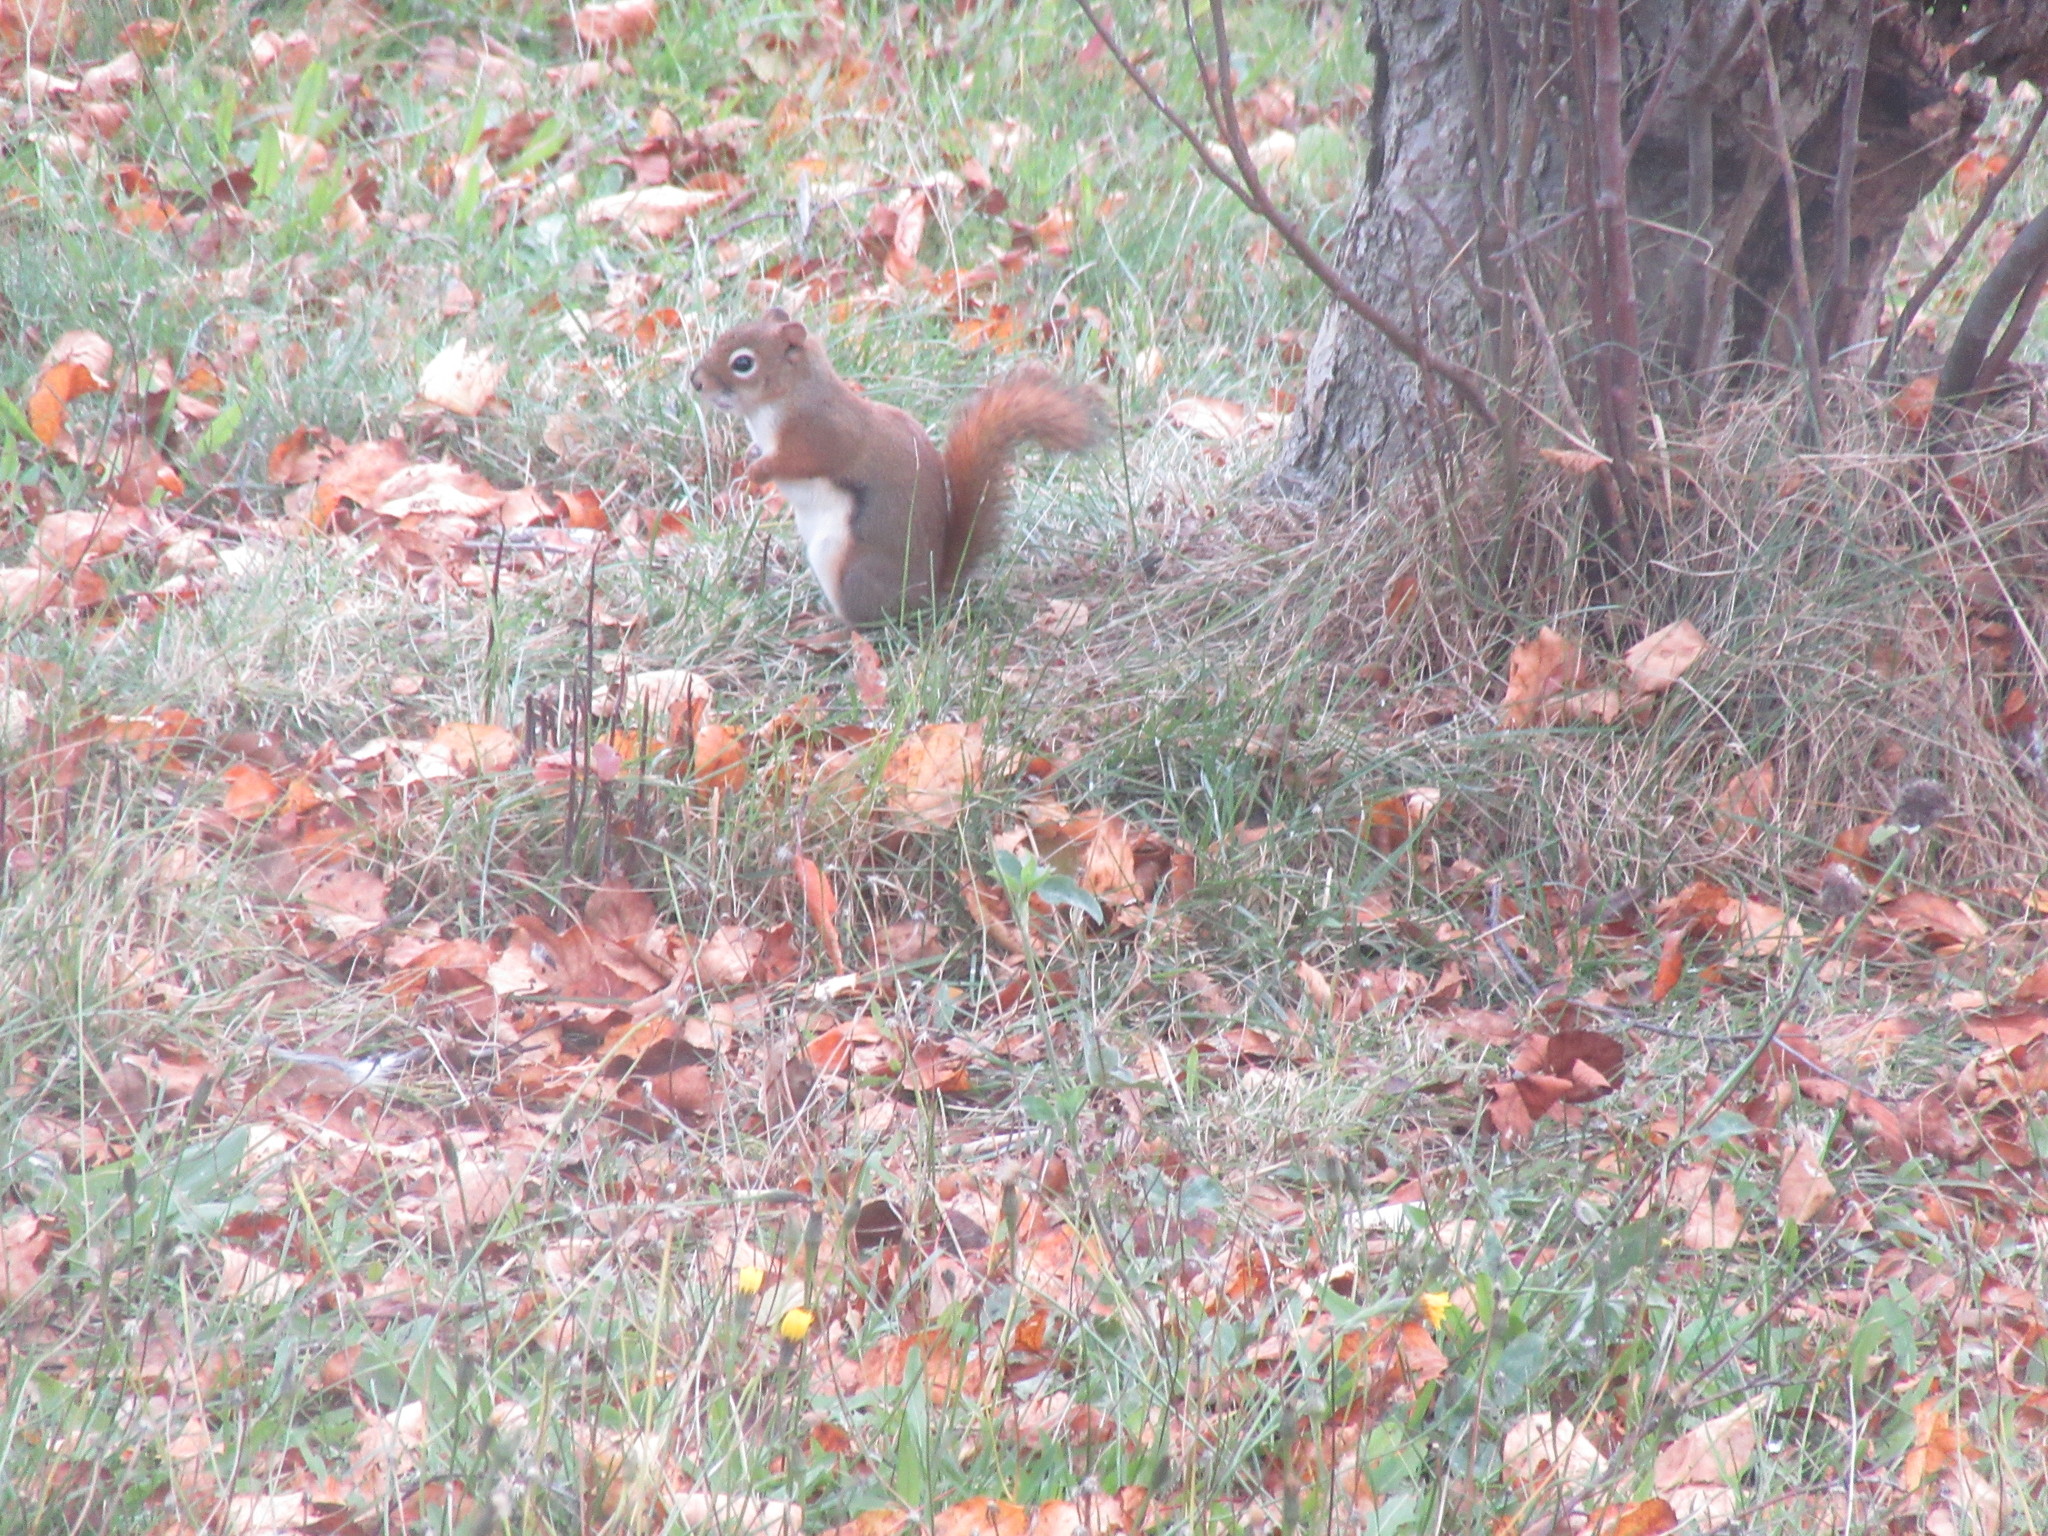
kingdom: Animalia
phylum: Chordata
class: Mammalia
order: Rodentia
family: Sciuridae
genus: Tamiasciurus
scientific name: Tamiasciurus hudsonicus
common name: Red squirrel
